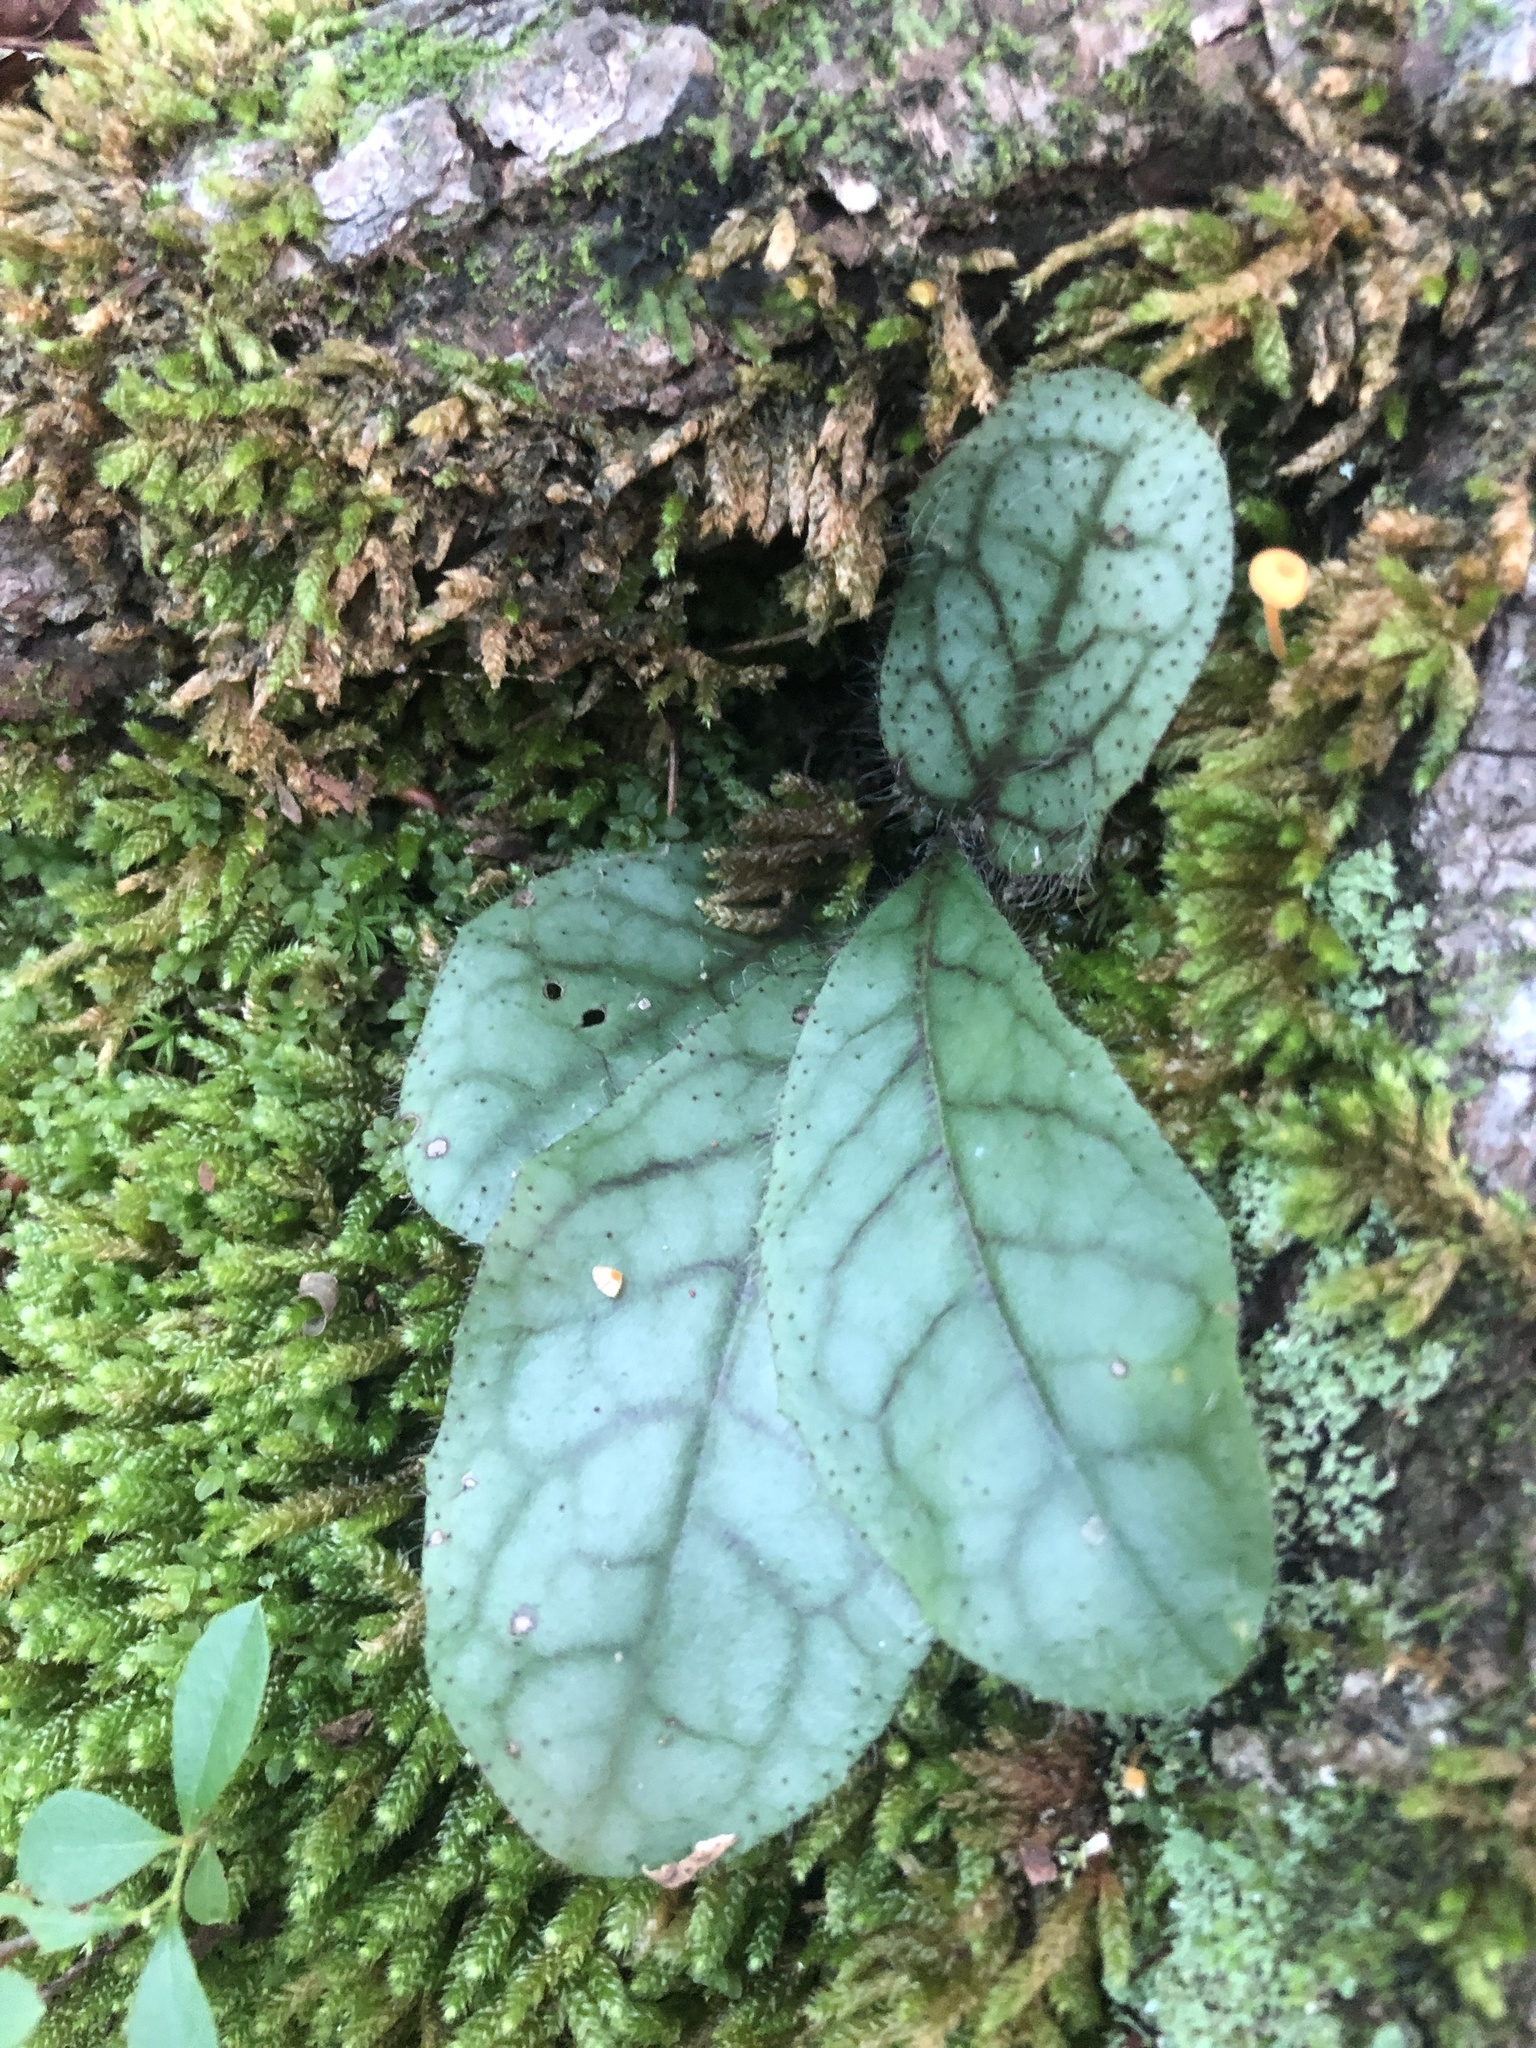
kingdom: Plantae
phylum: Tracheophyta
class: Magnoliopsida
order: Asterales
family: Asteraceae
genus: Hieracium
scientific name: Hieracium venosum
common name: Rattlesnake hawkweed
